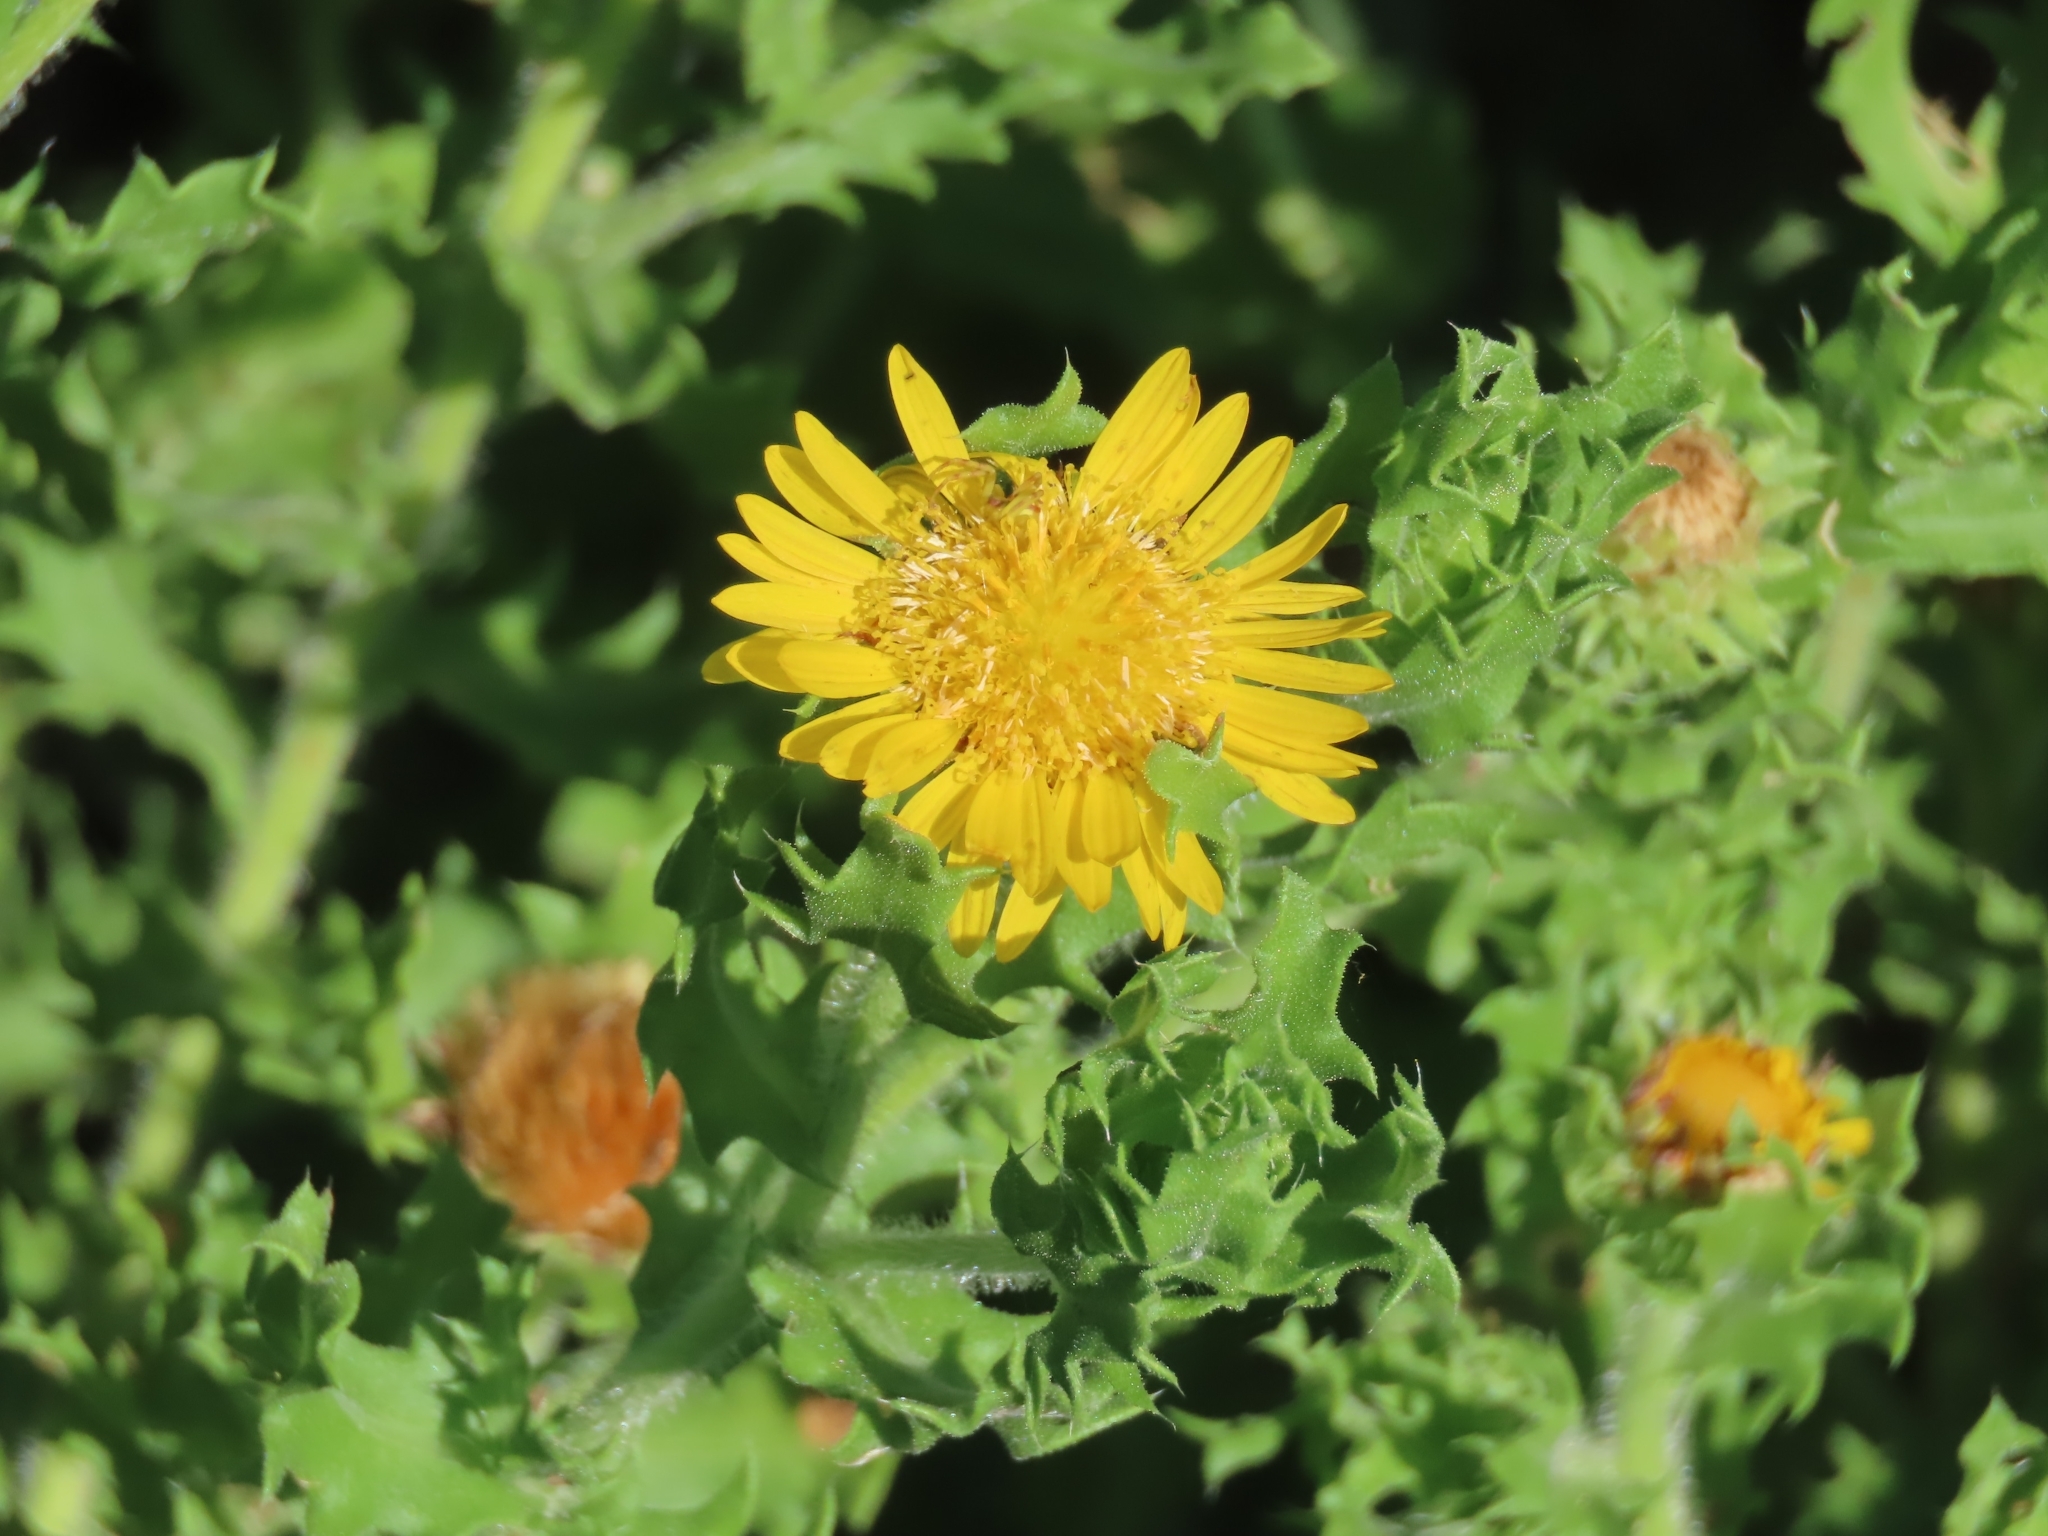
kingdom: Plantae
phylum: Tracheophyta
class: Magnoliopsida
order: Asterales
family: Asteraceae
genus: Rayjacksonia
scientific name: Rayjacksonia phyllocephala
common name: Gulf coast camphor daisy
